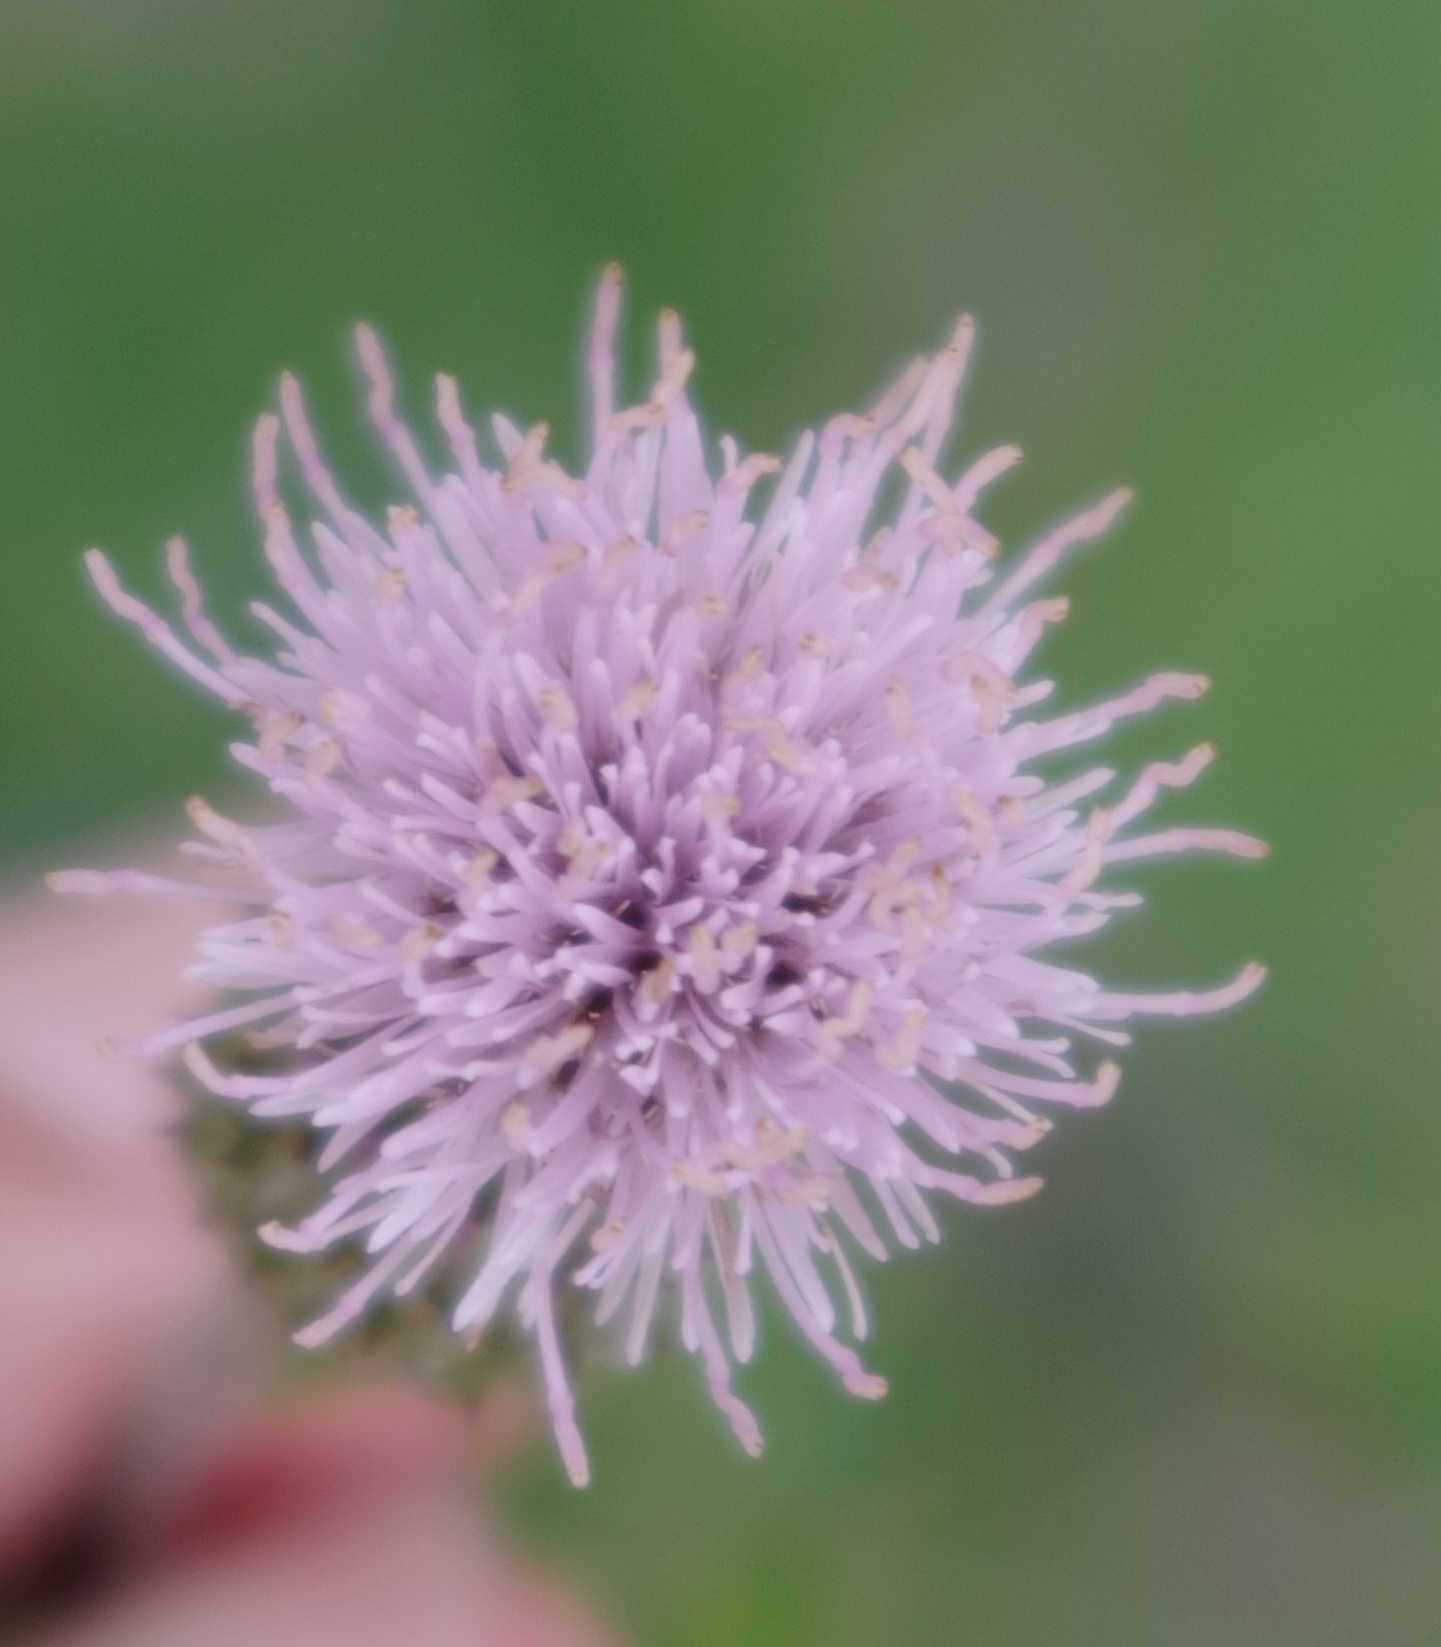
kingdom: Plantae
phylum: Tracheophyta
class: Magnoliopsida
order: Asterales
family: Asteraceae
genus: Cirsium
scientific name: Cirsium arvense
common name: Creeping thistle
